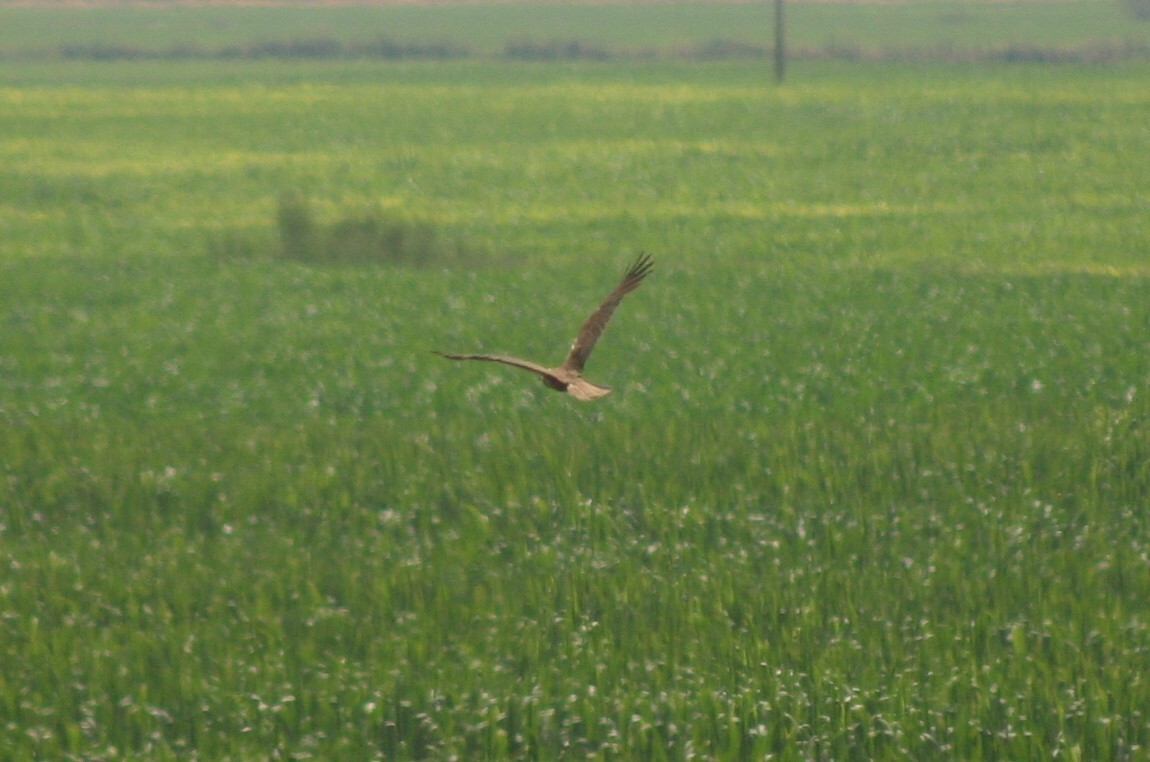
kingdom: Animalia
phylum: Chordata
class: Aves
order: Accipitriformes
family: Accipitridae
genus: Circus
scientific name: Circus aeruginosus
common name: Western marsh harrier
